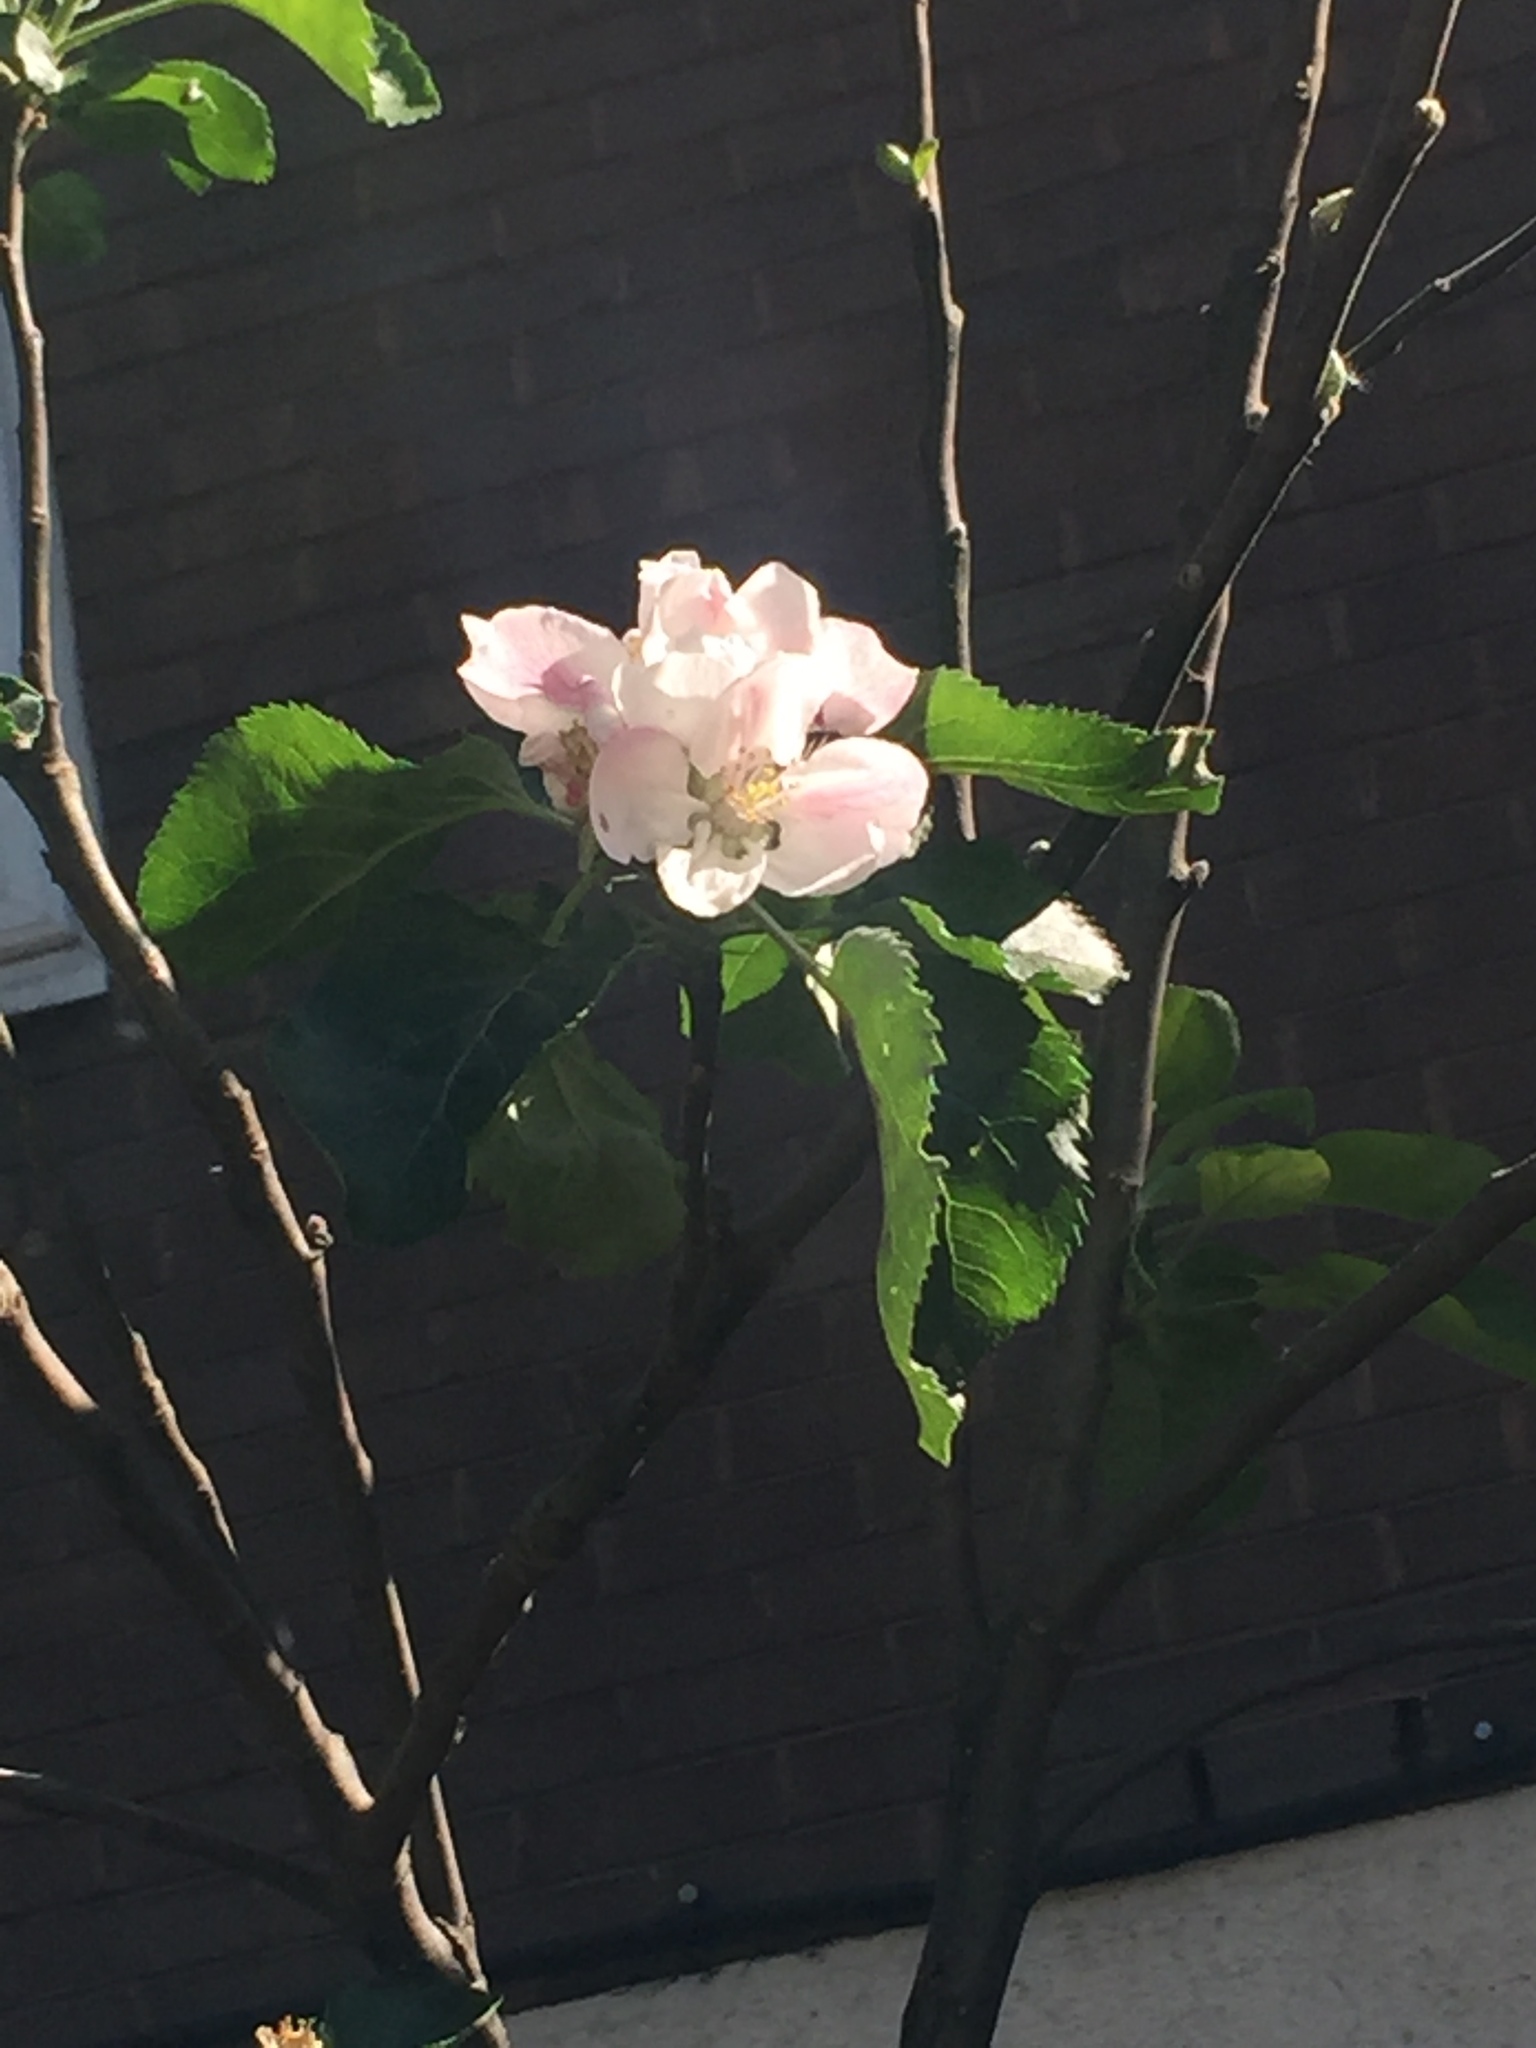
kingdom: Plantae
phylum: Tracheophyta
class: Magnoliopsida
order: Rosales
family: Rosaceae
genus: Malus
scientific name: Malus domestica
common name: Apple
